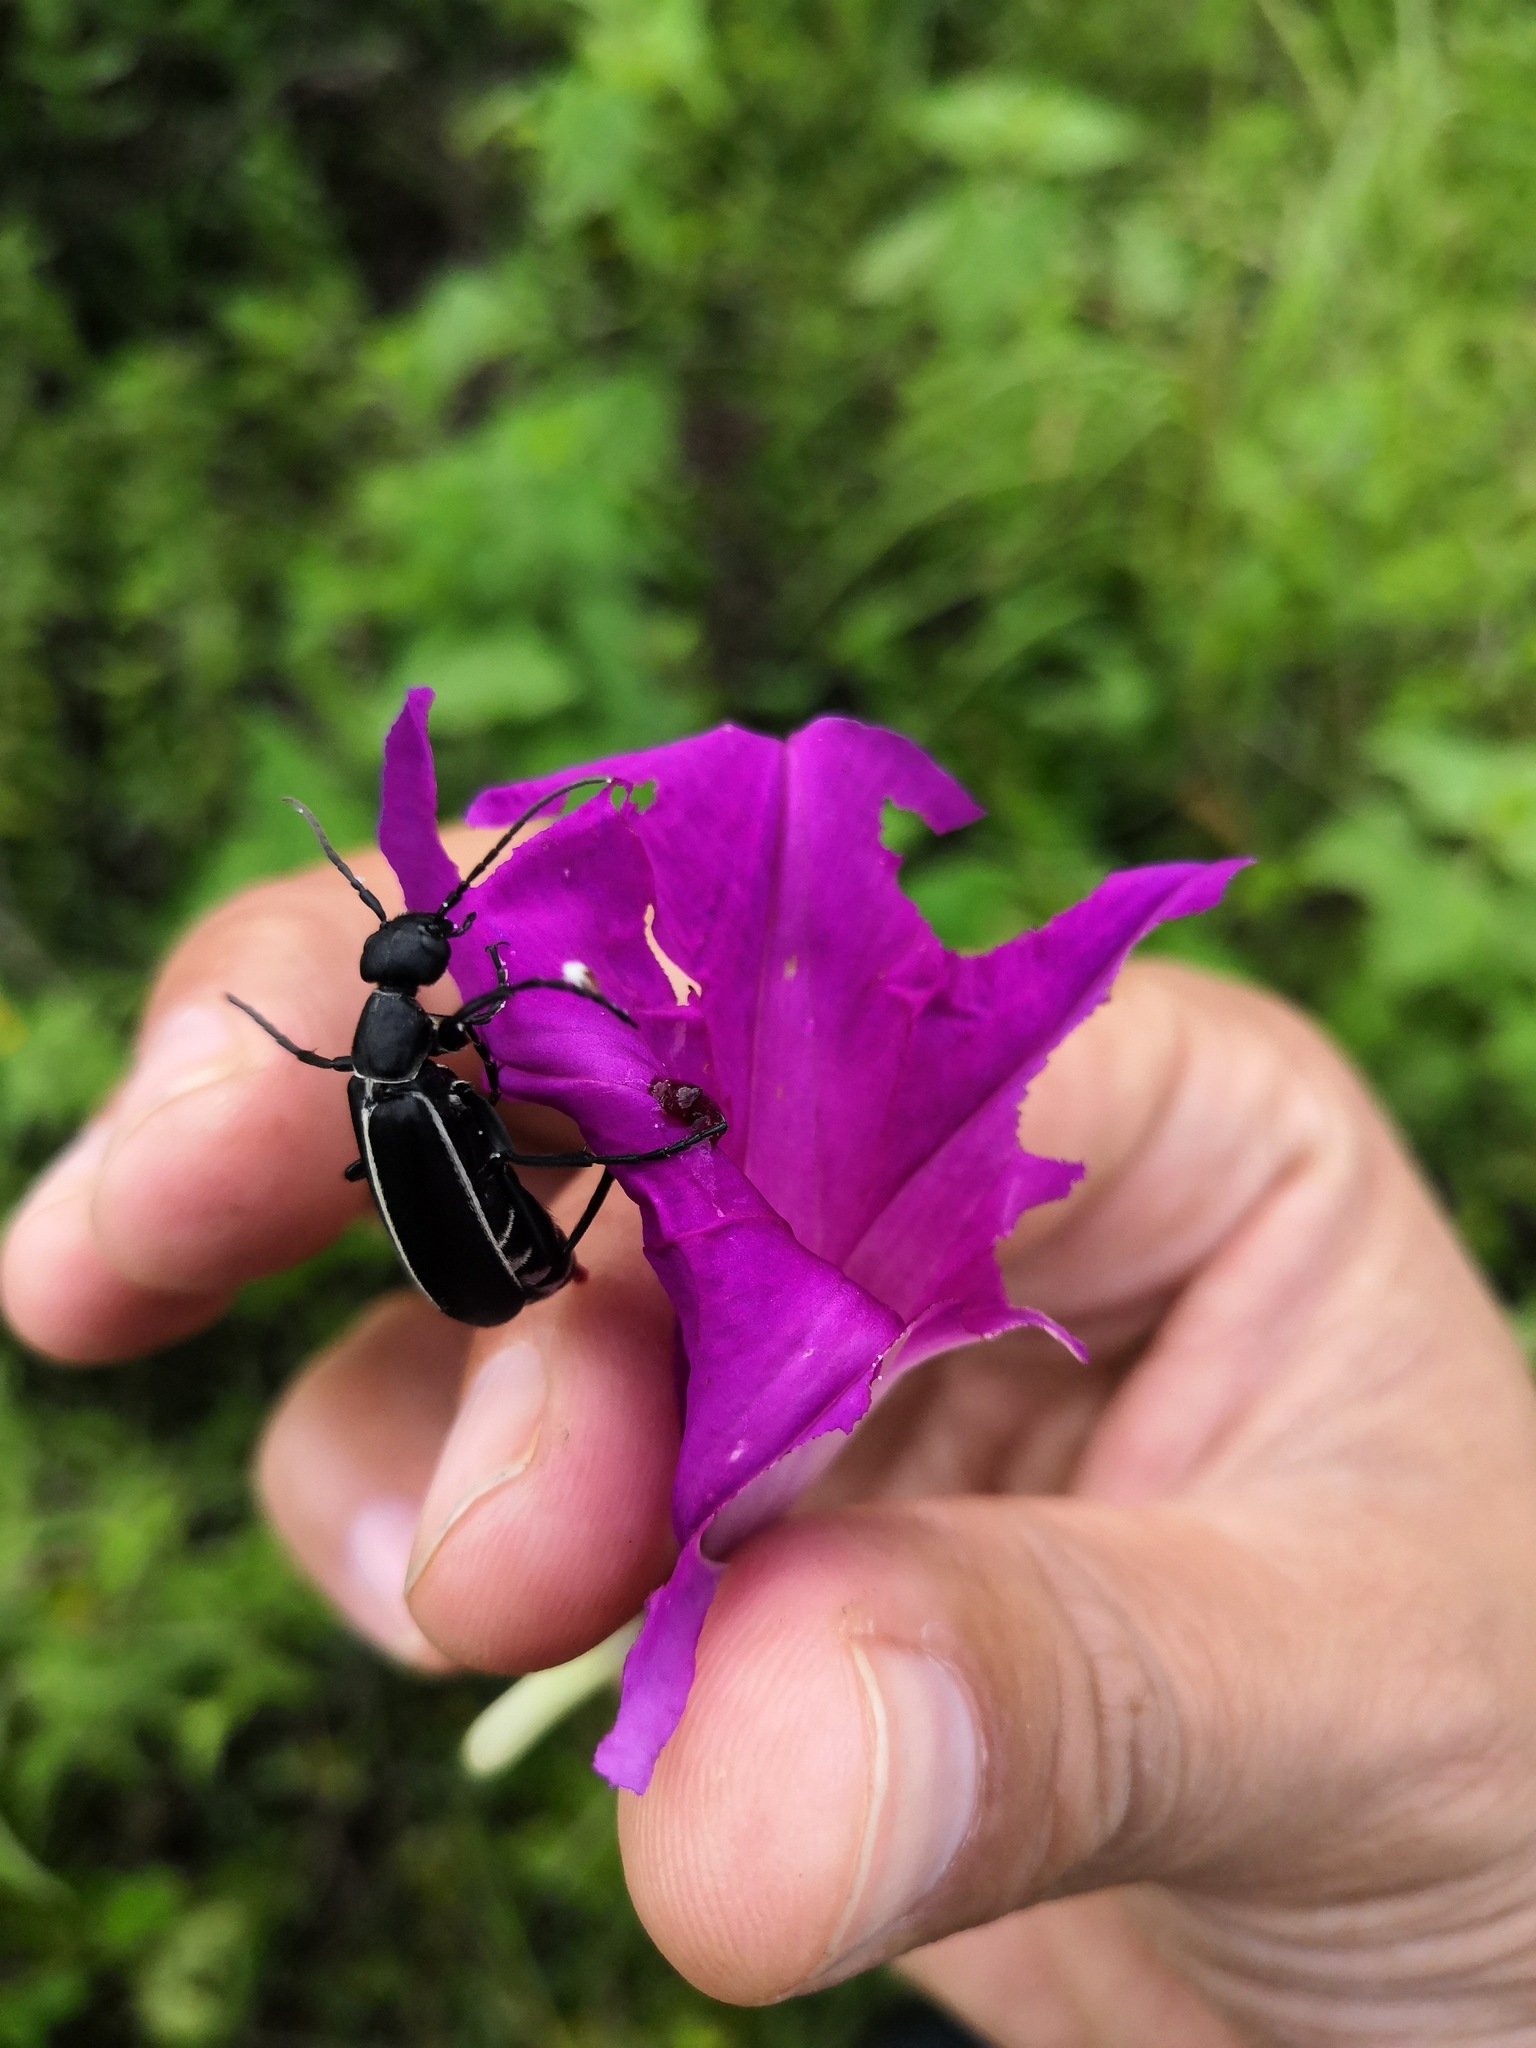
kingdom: Animalia
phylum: Arthropoda
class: Insecta
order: Coleoptera
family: Meloidae
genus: Epicauta
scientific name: Epicauta cinctipennis
